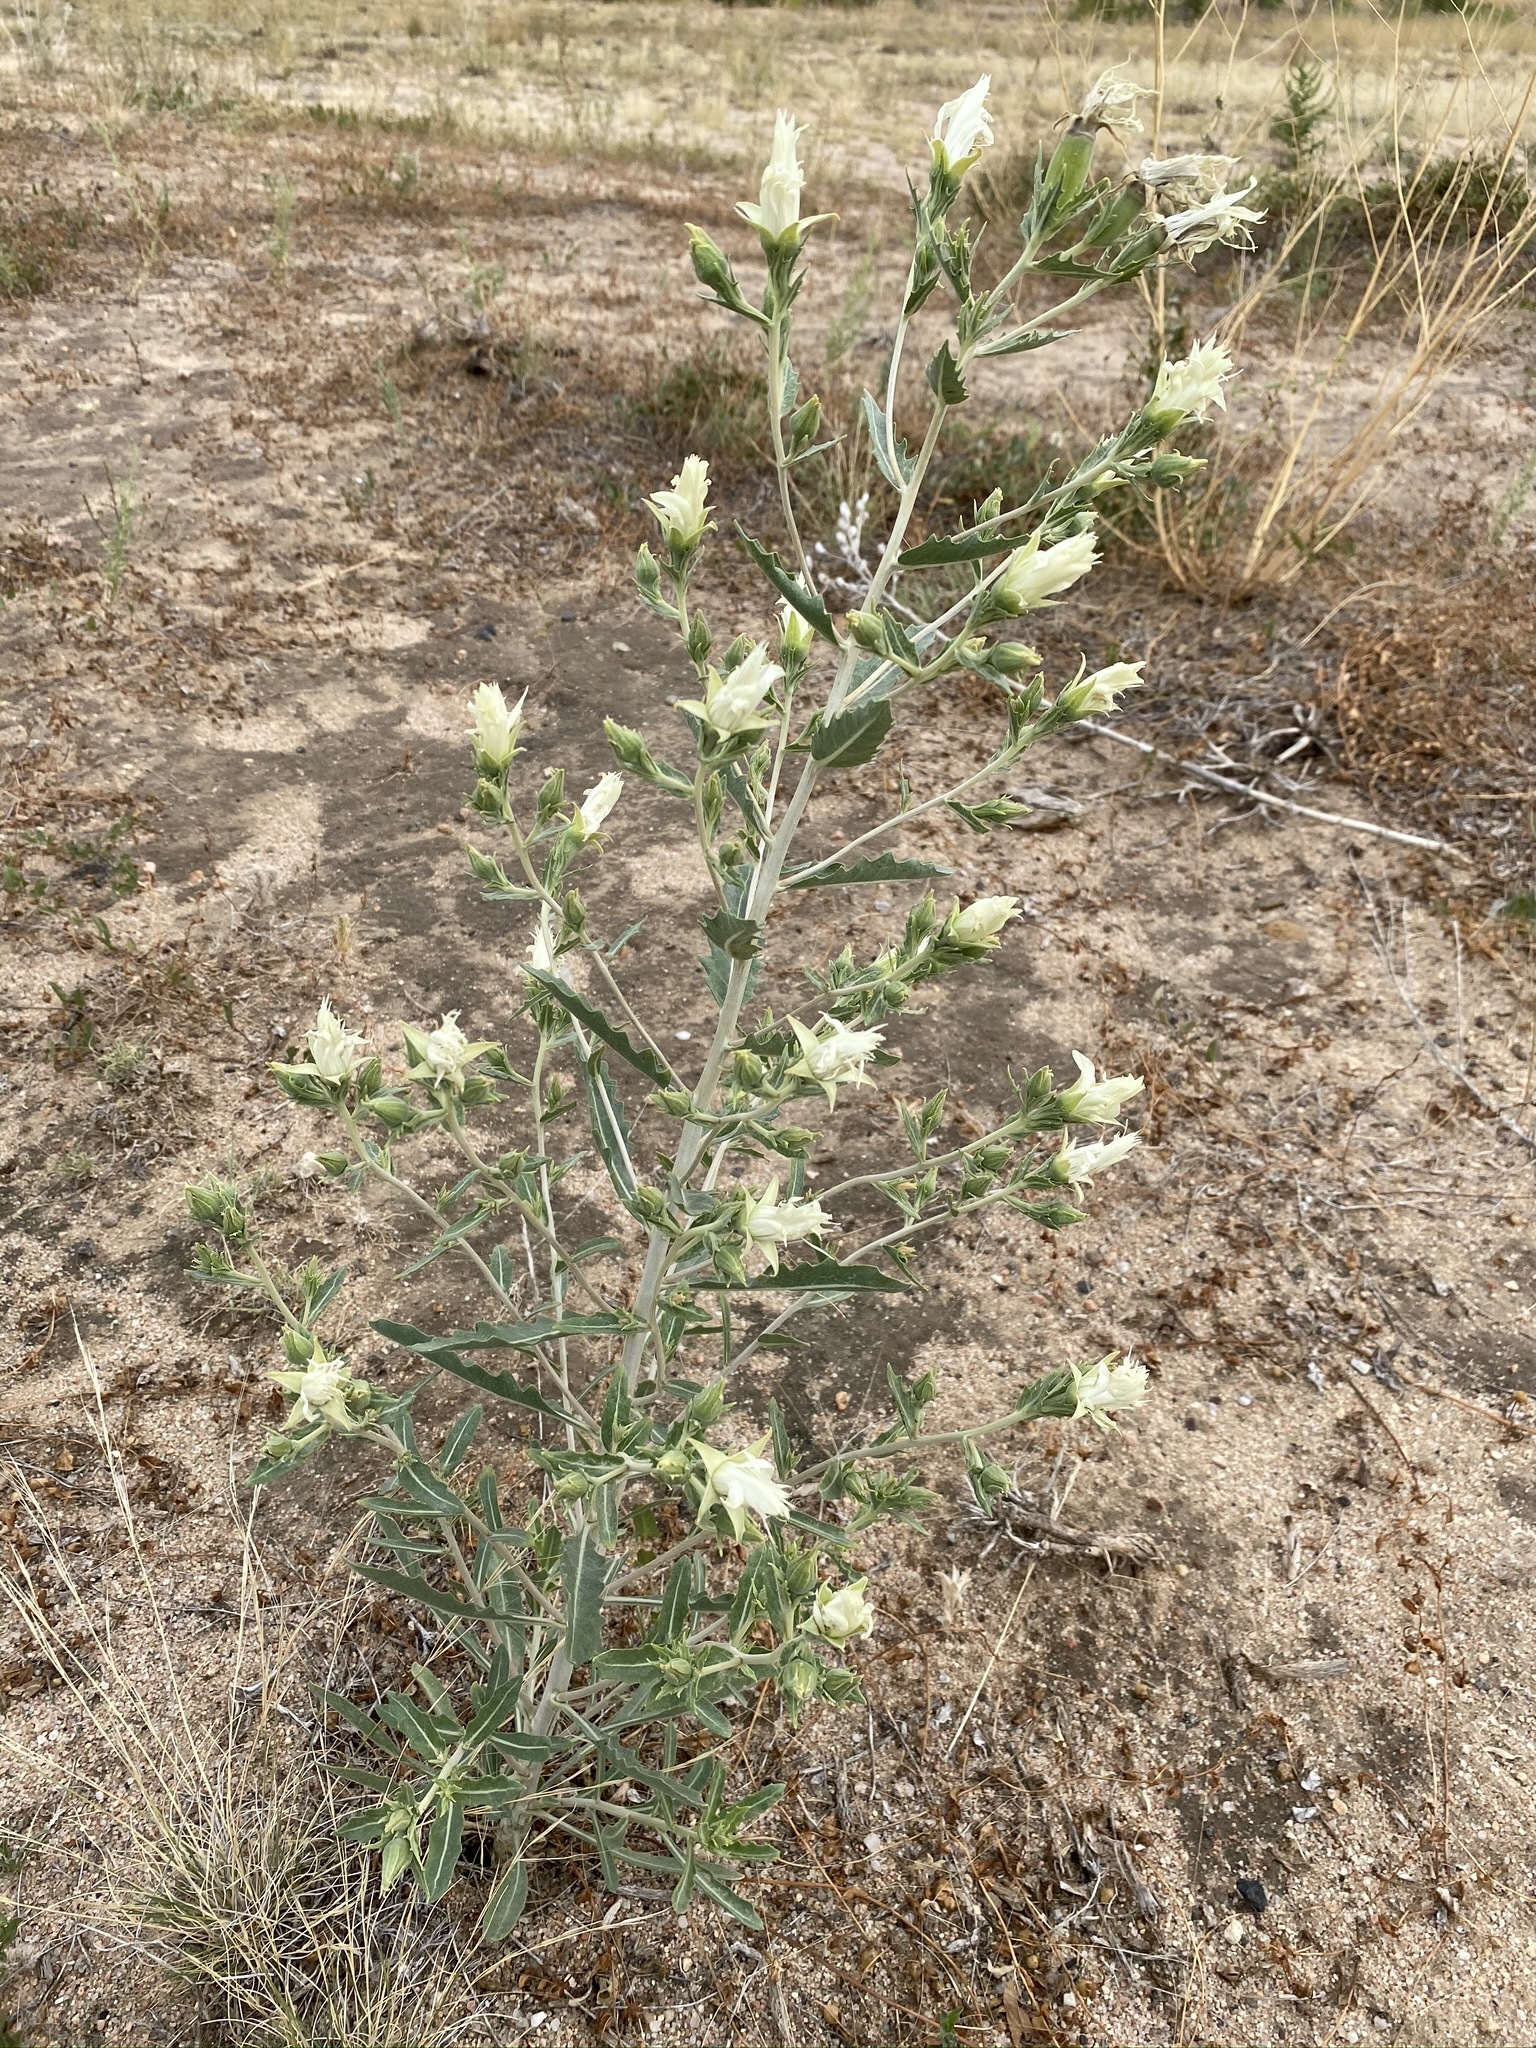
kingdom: Plantae
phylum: Tracheophyta
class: Magnoliopsida
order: Cornales
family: Loasaceae
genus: Mentzelia
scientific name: Mentzelia nuda
